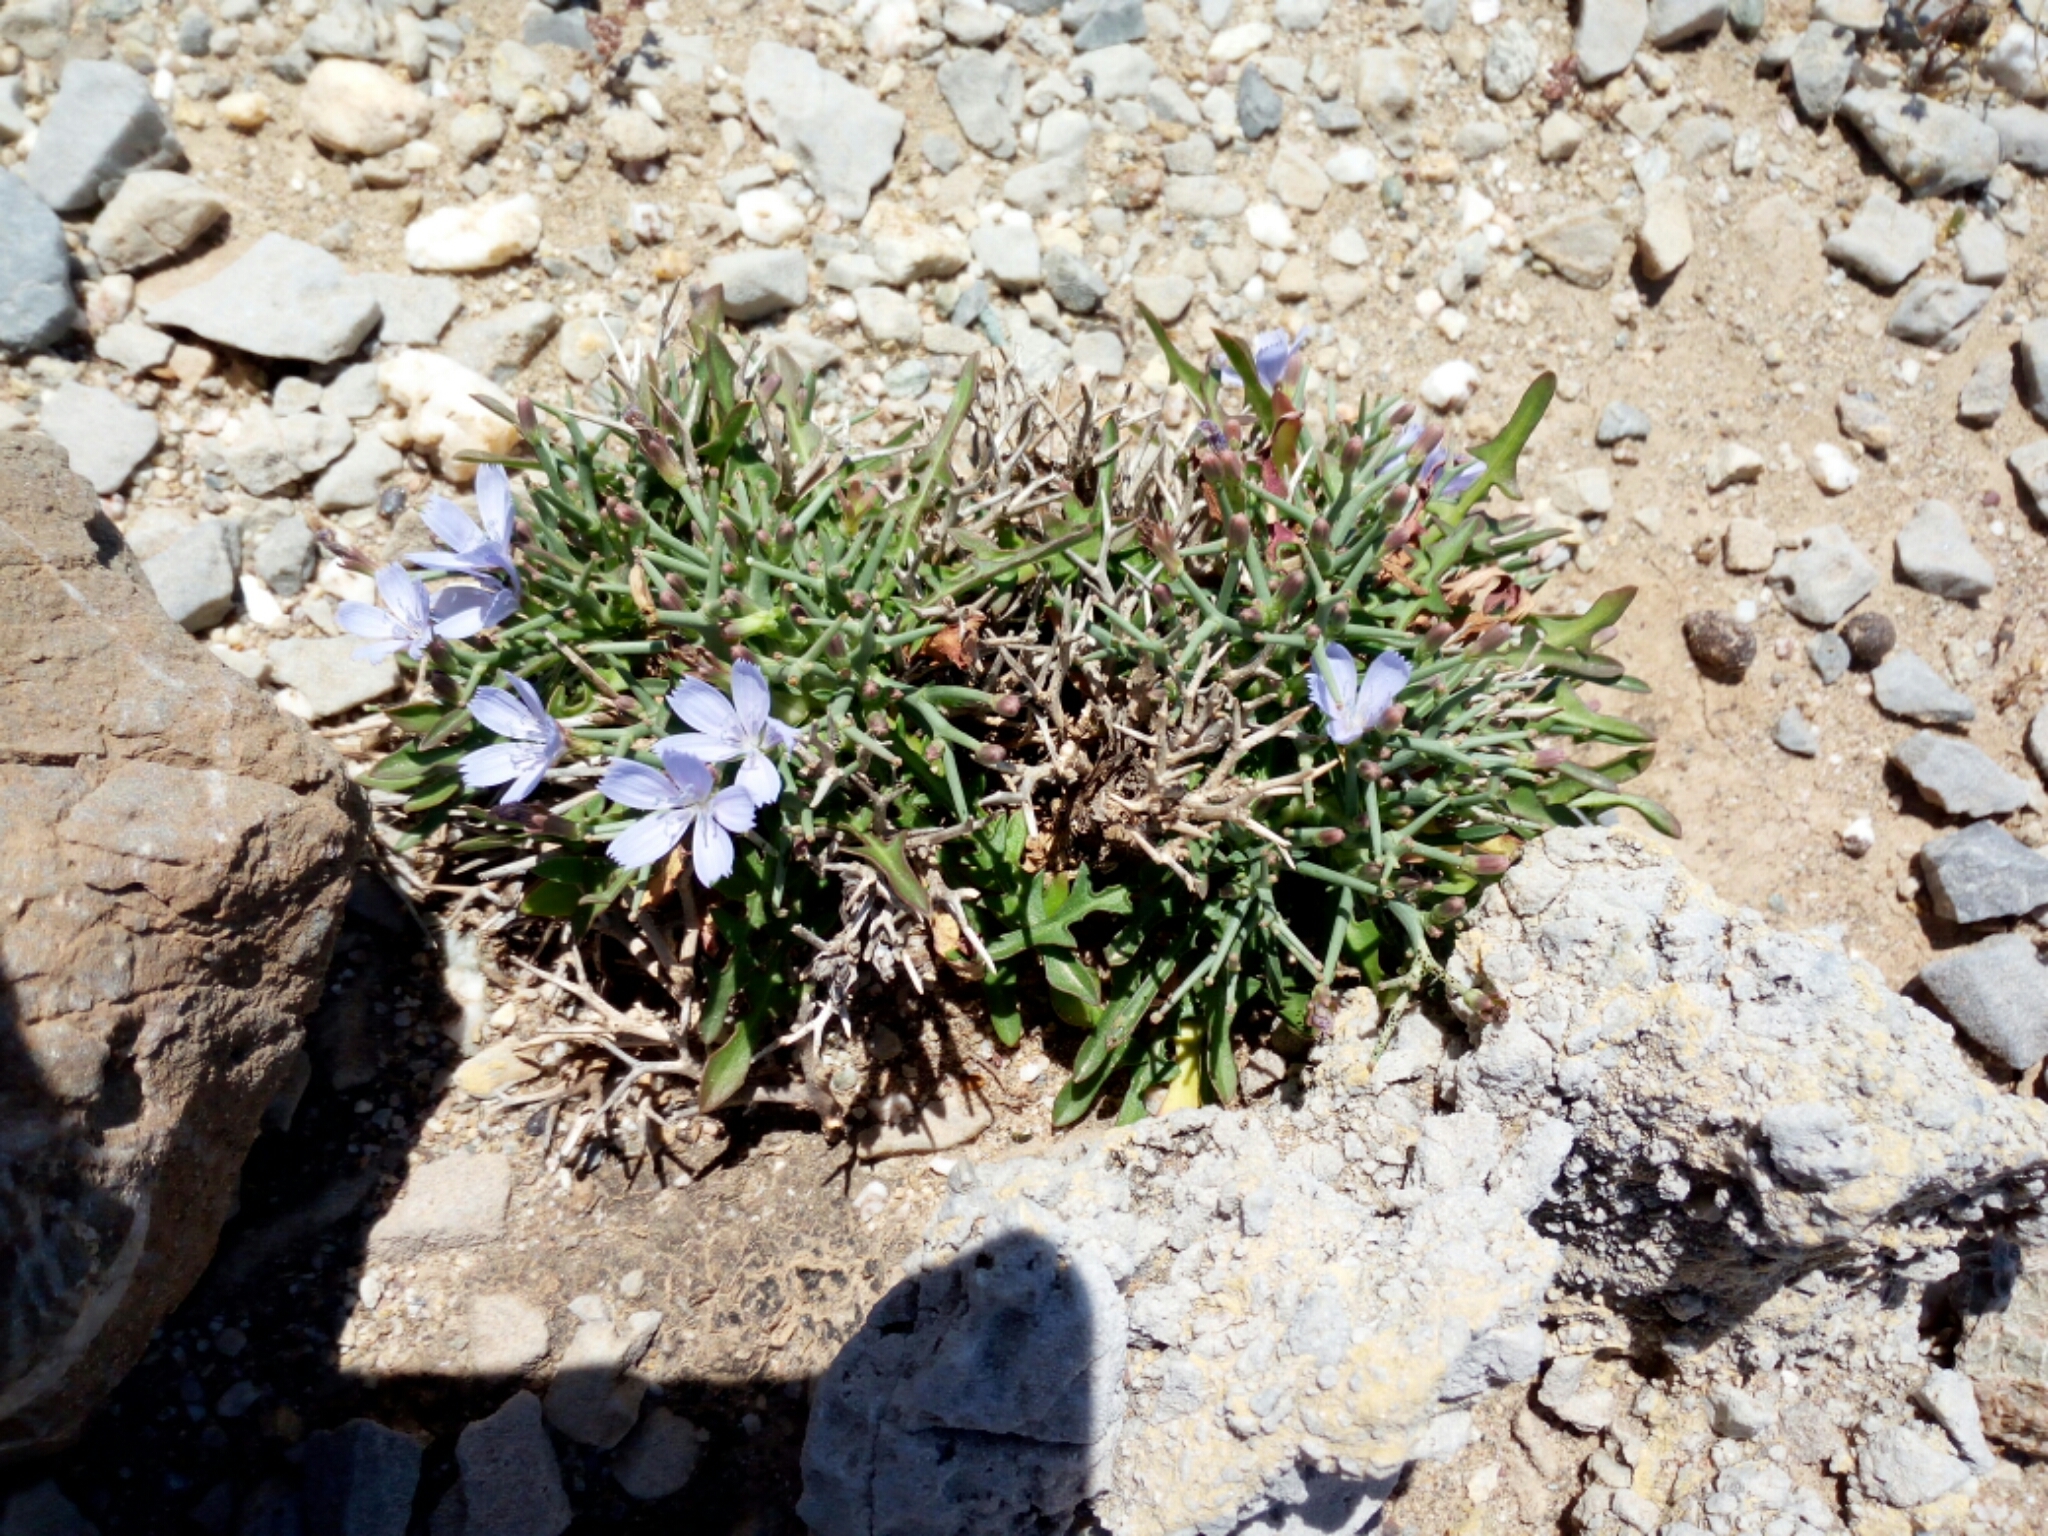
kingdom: Plantae
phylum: Tracheophyta
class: Magnoliopsida
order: Asterales
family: Asteraceae
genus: Cichorium
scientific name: Cichorium spinosum
